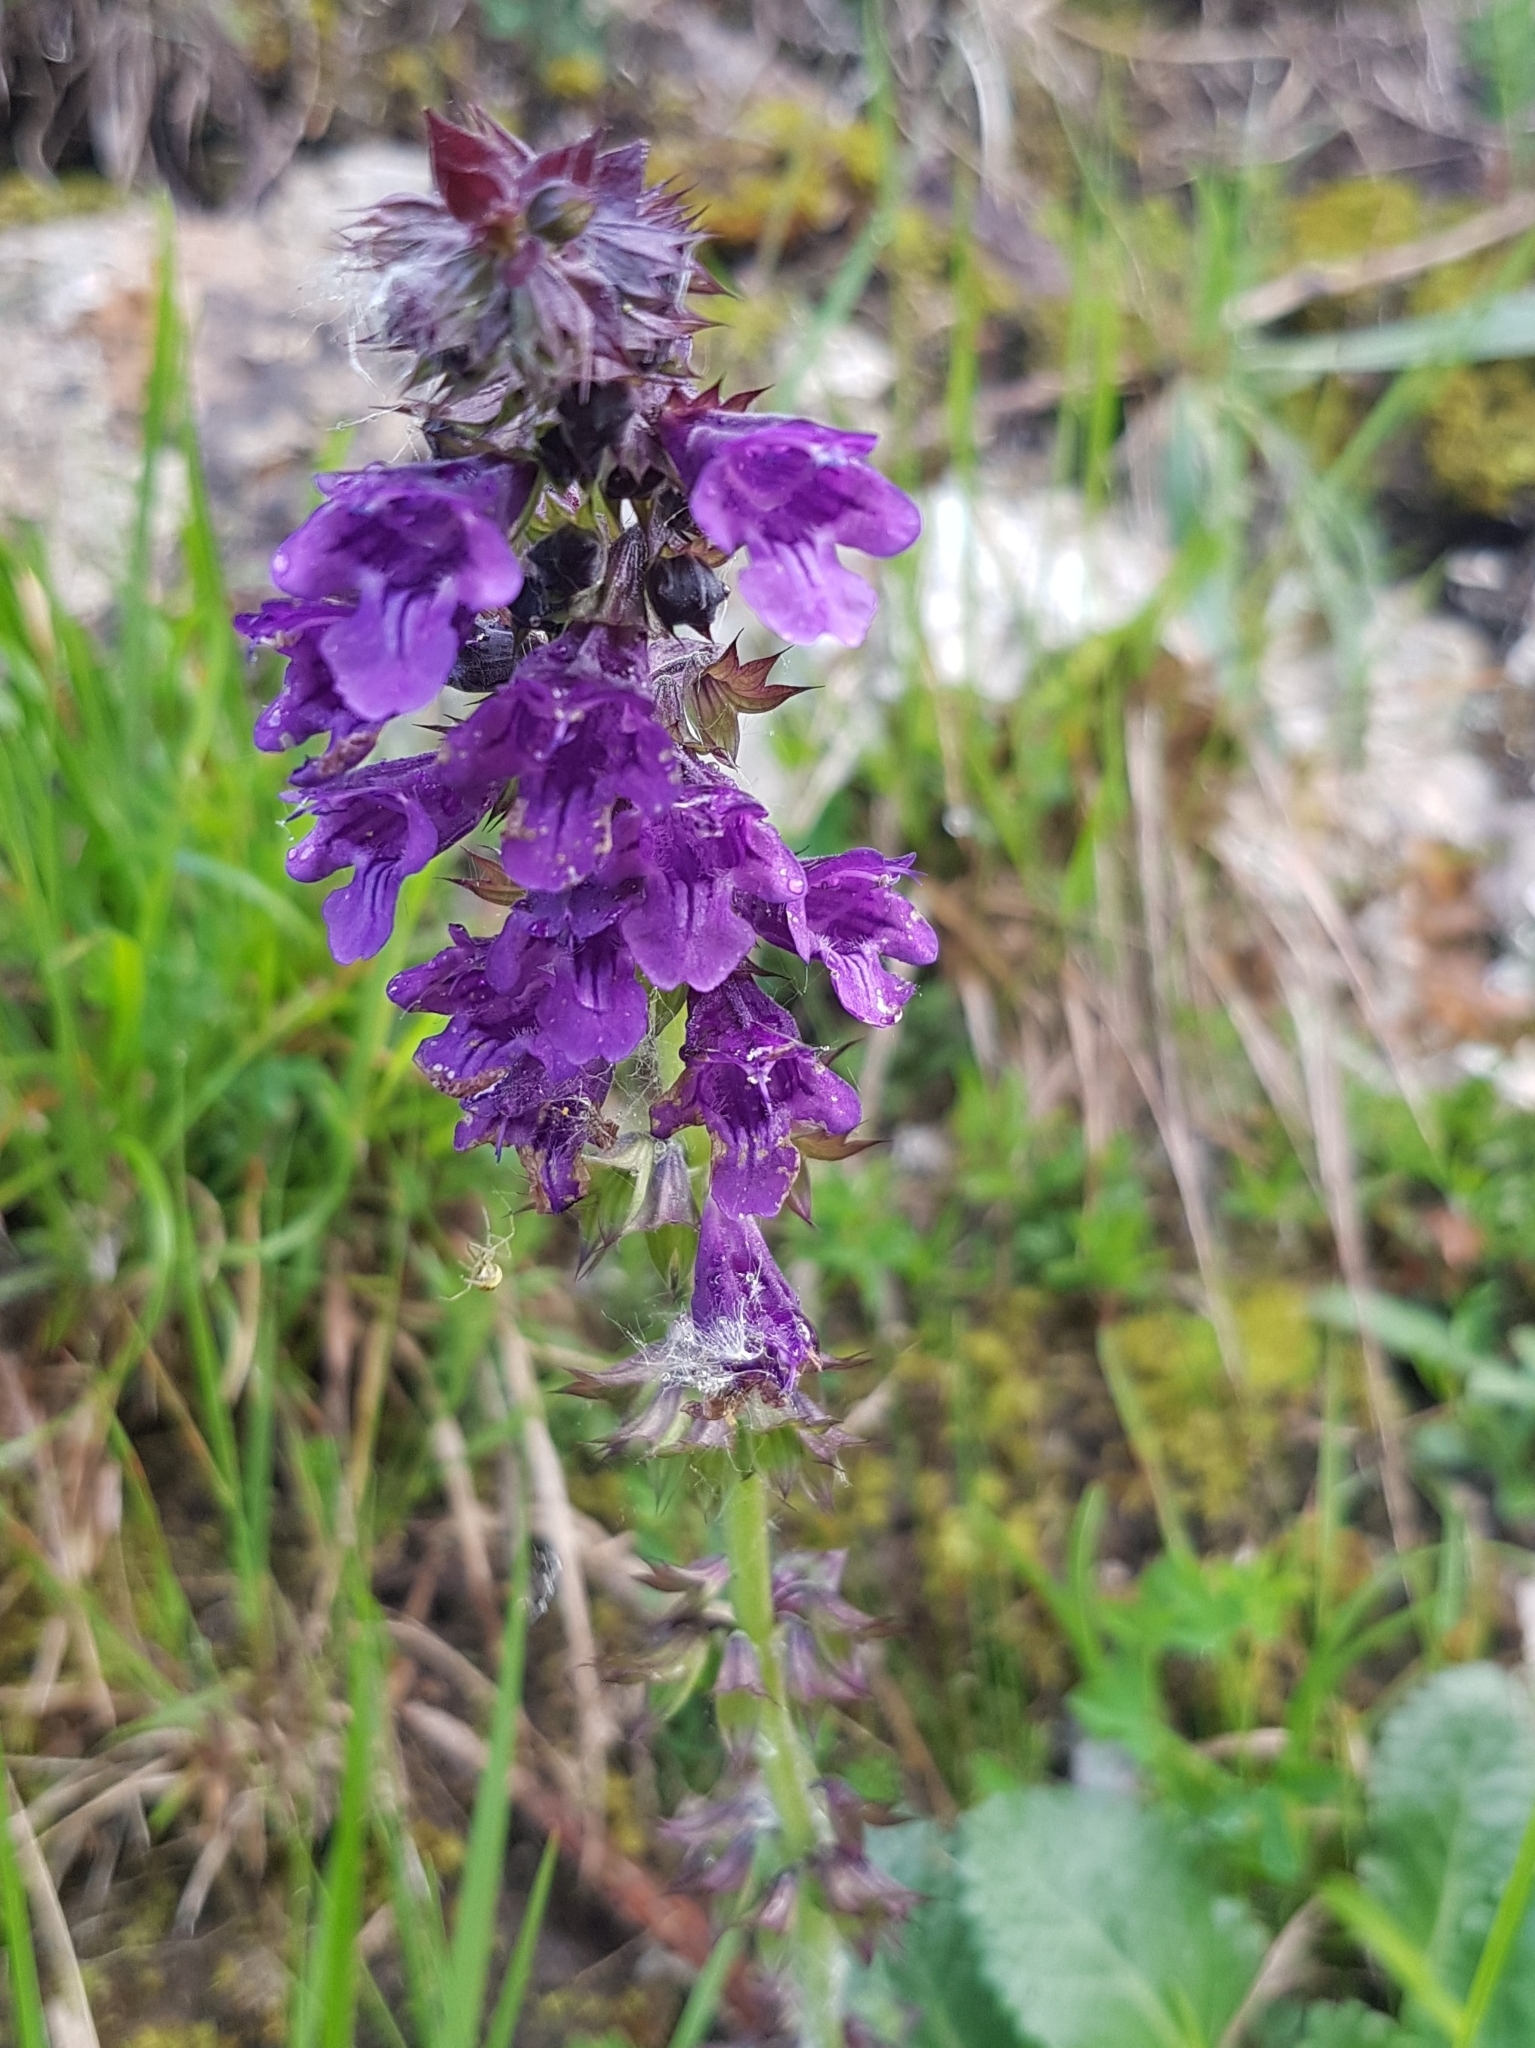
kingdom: Plantae
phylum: Tracheophyta
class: Magnoliopsida
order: Lamiales
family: Lamiaceae
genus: Horminum
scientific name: Horminum pyrenaicum
